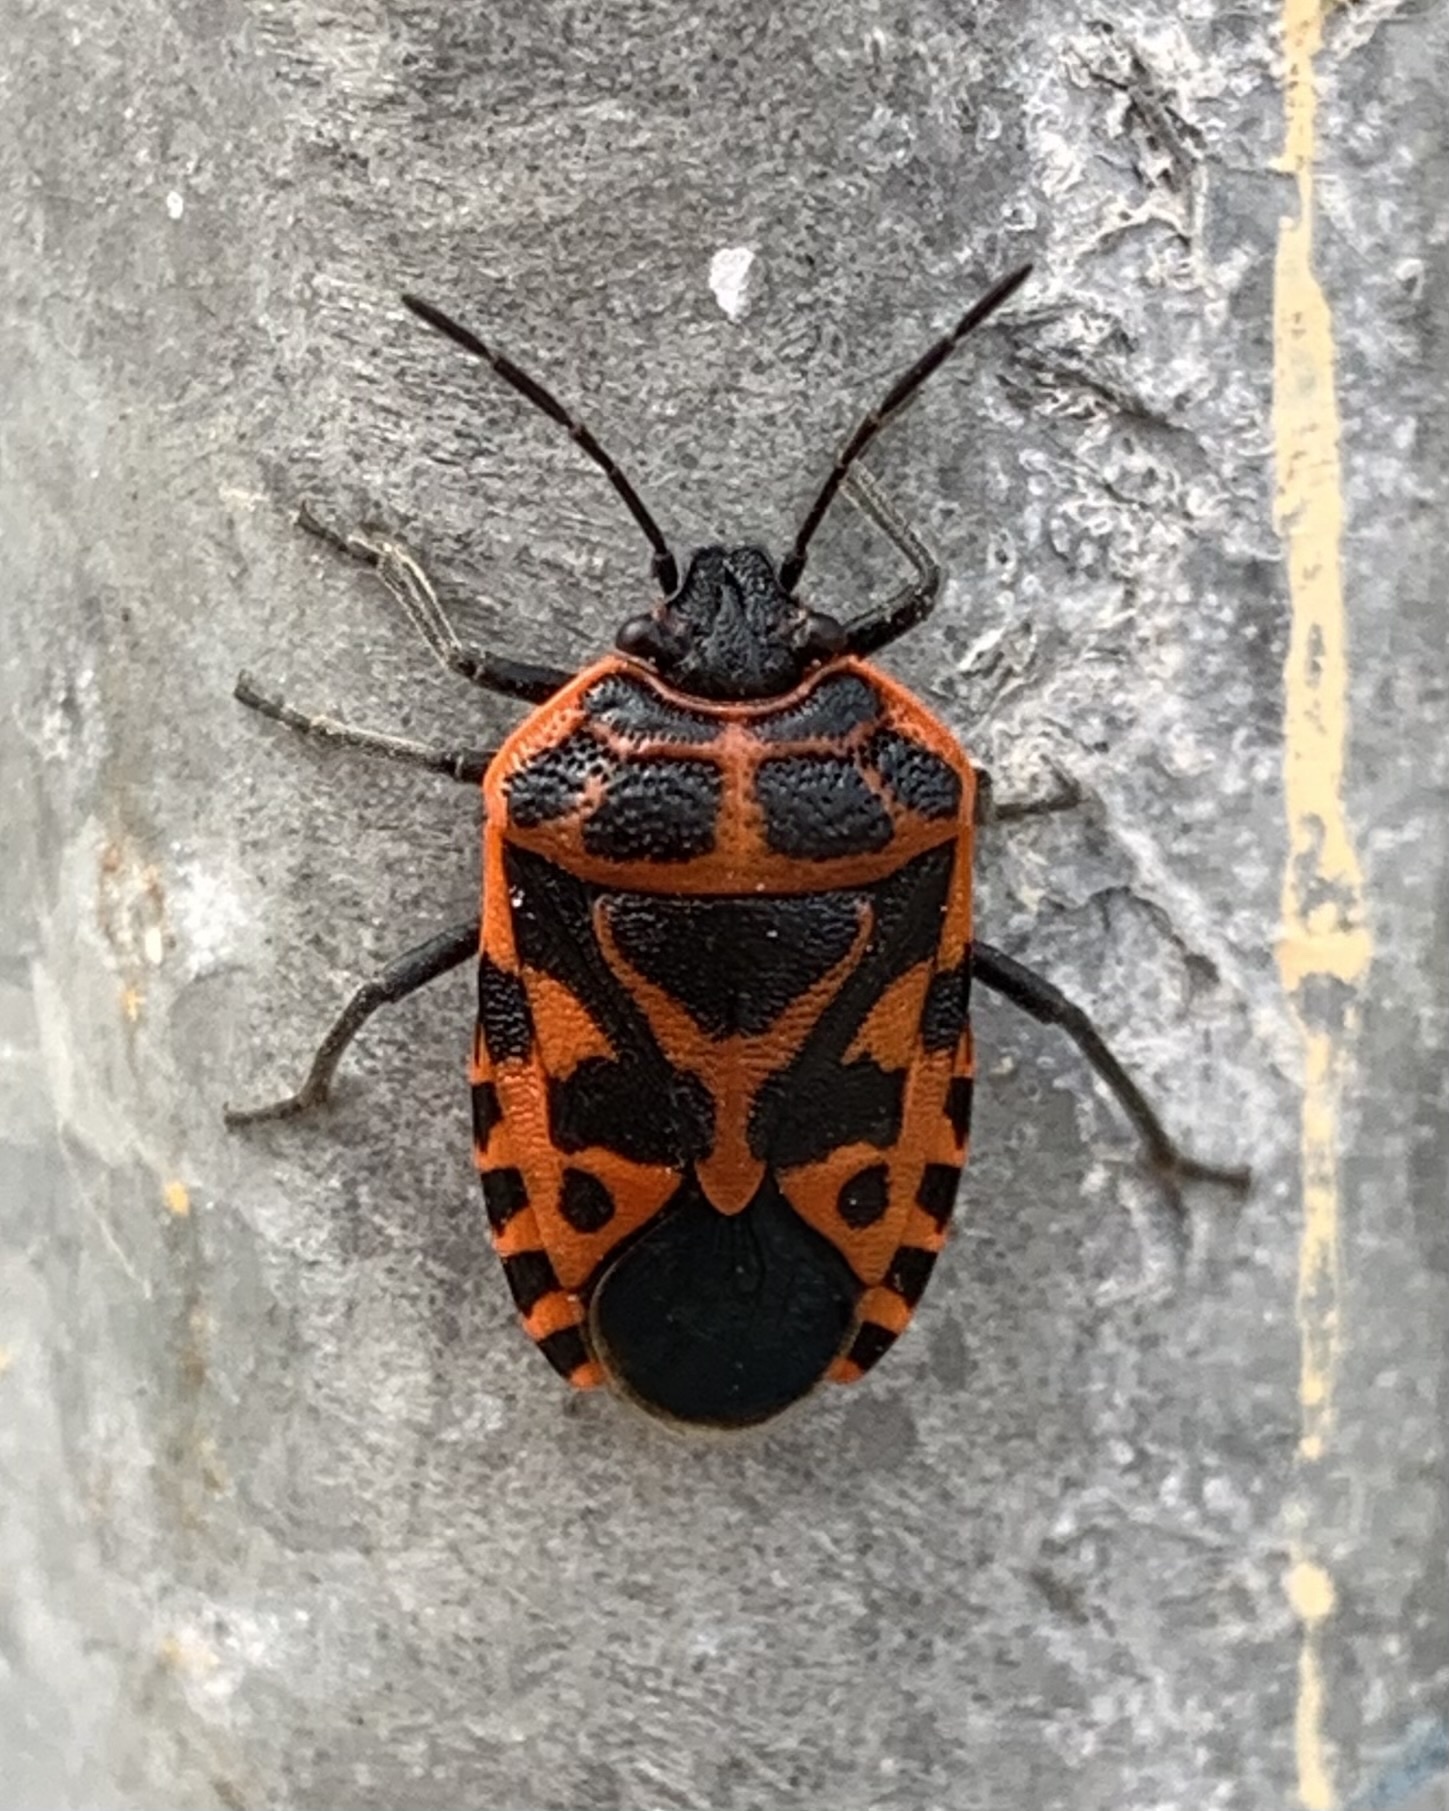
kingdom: Animalia
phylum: Arthropoda
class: Insecta
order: Hemiptera
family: Pentatomidae
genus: Eurydema
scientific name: Eurydema ventralis
